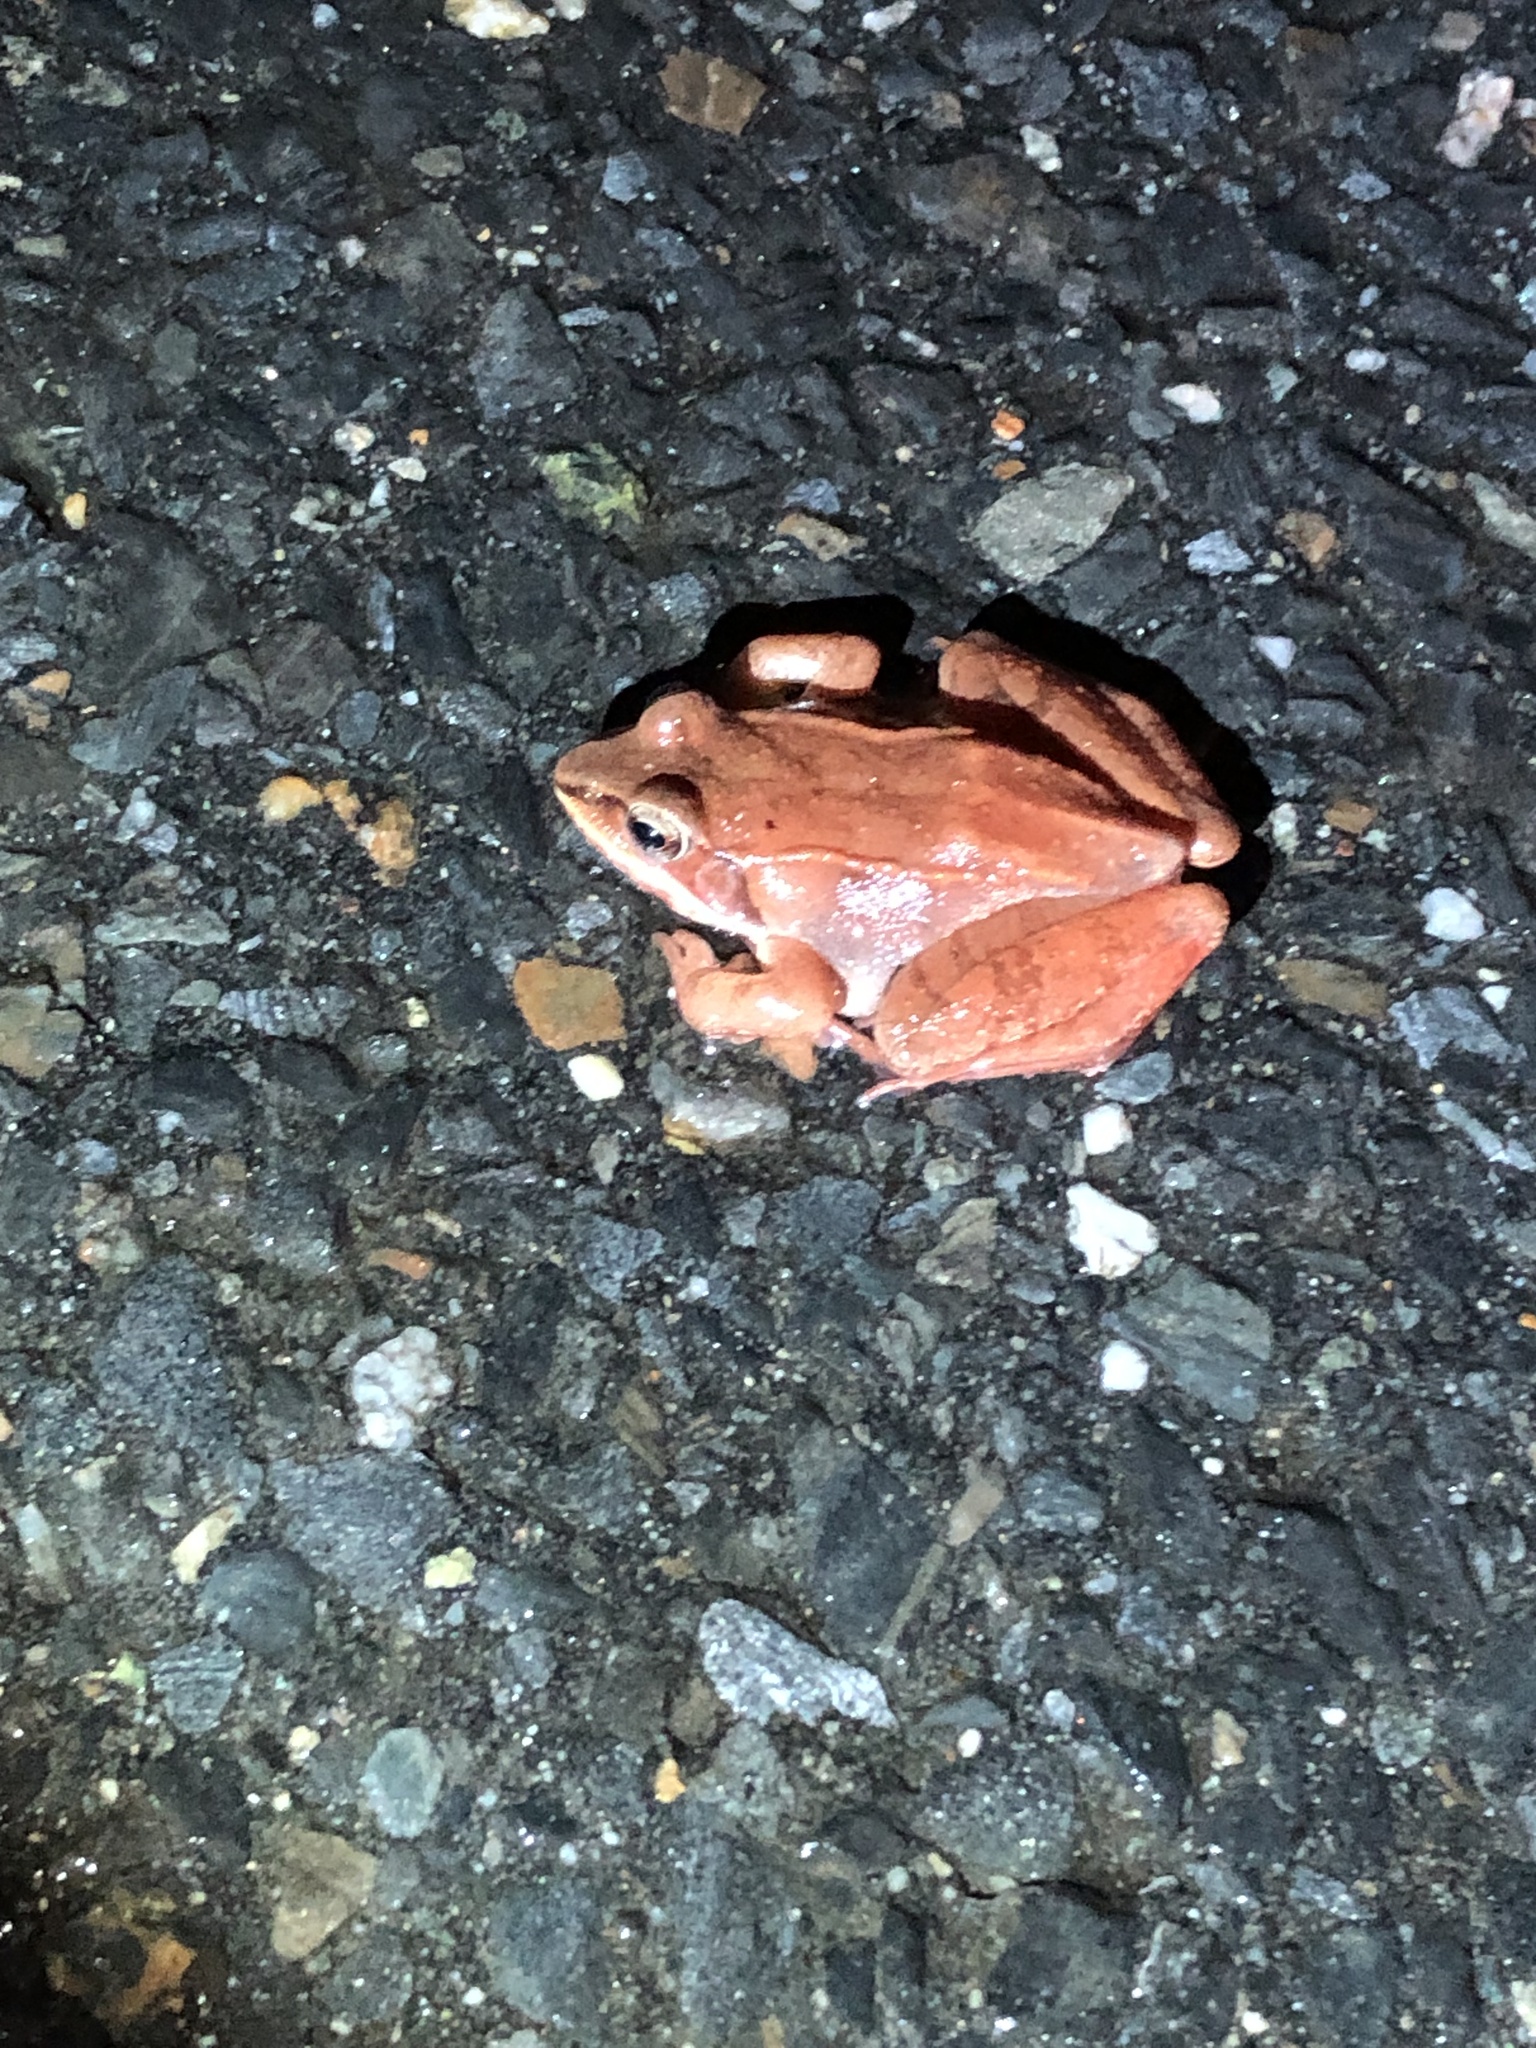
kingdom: Animalia
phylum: Chordata
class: Amphibia
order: Anura
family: Ranidae
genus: Lithobates
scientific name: Lithobates sylvaticus
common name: Wood frog
